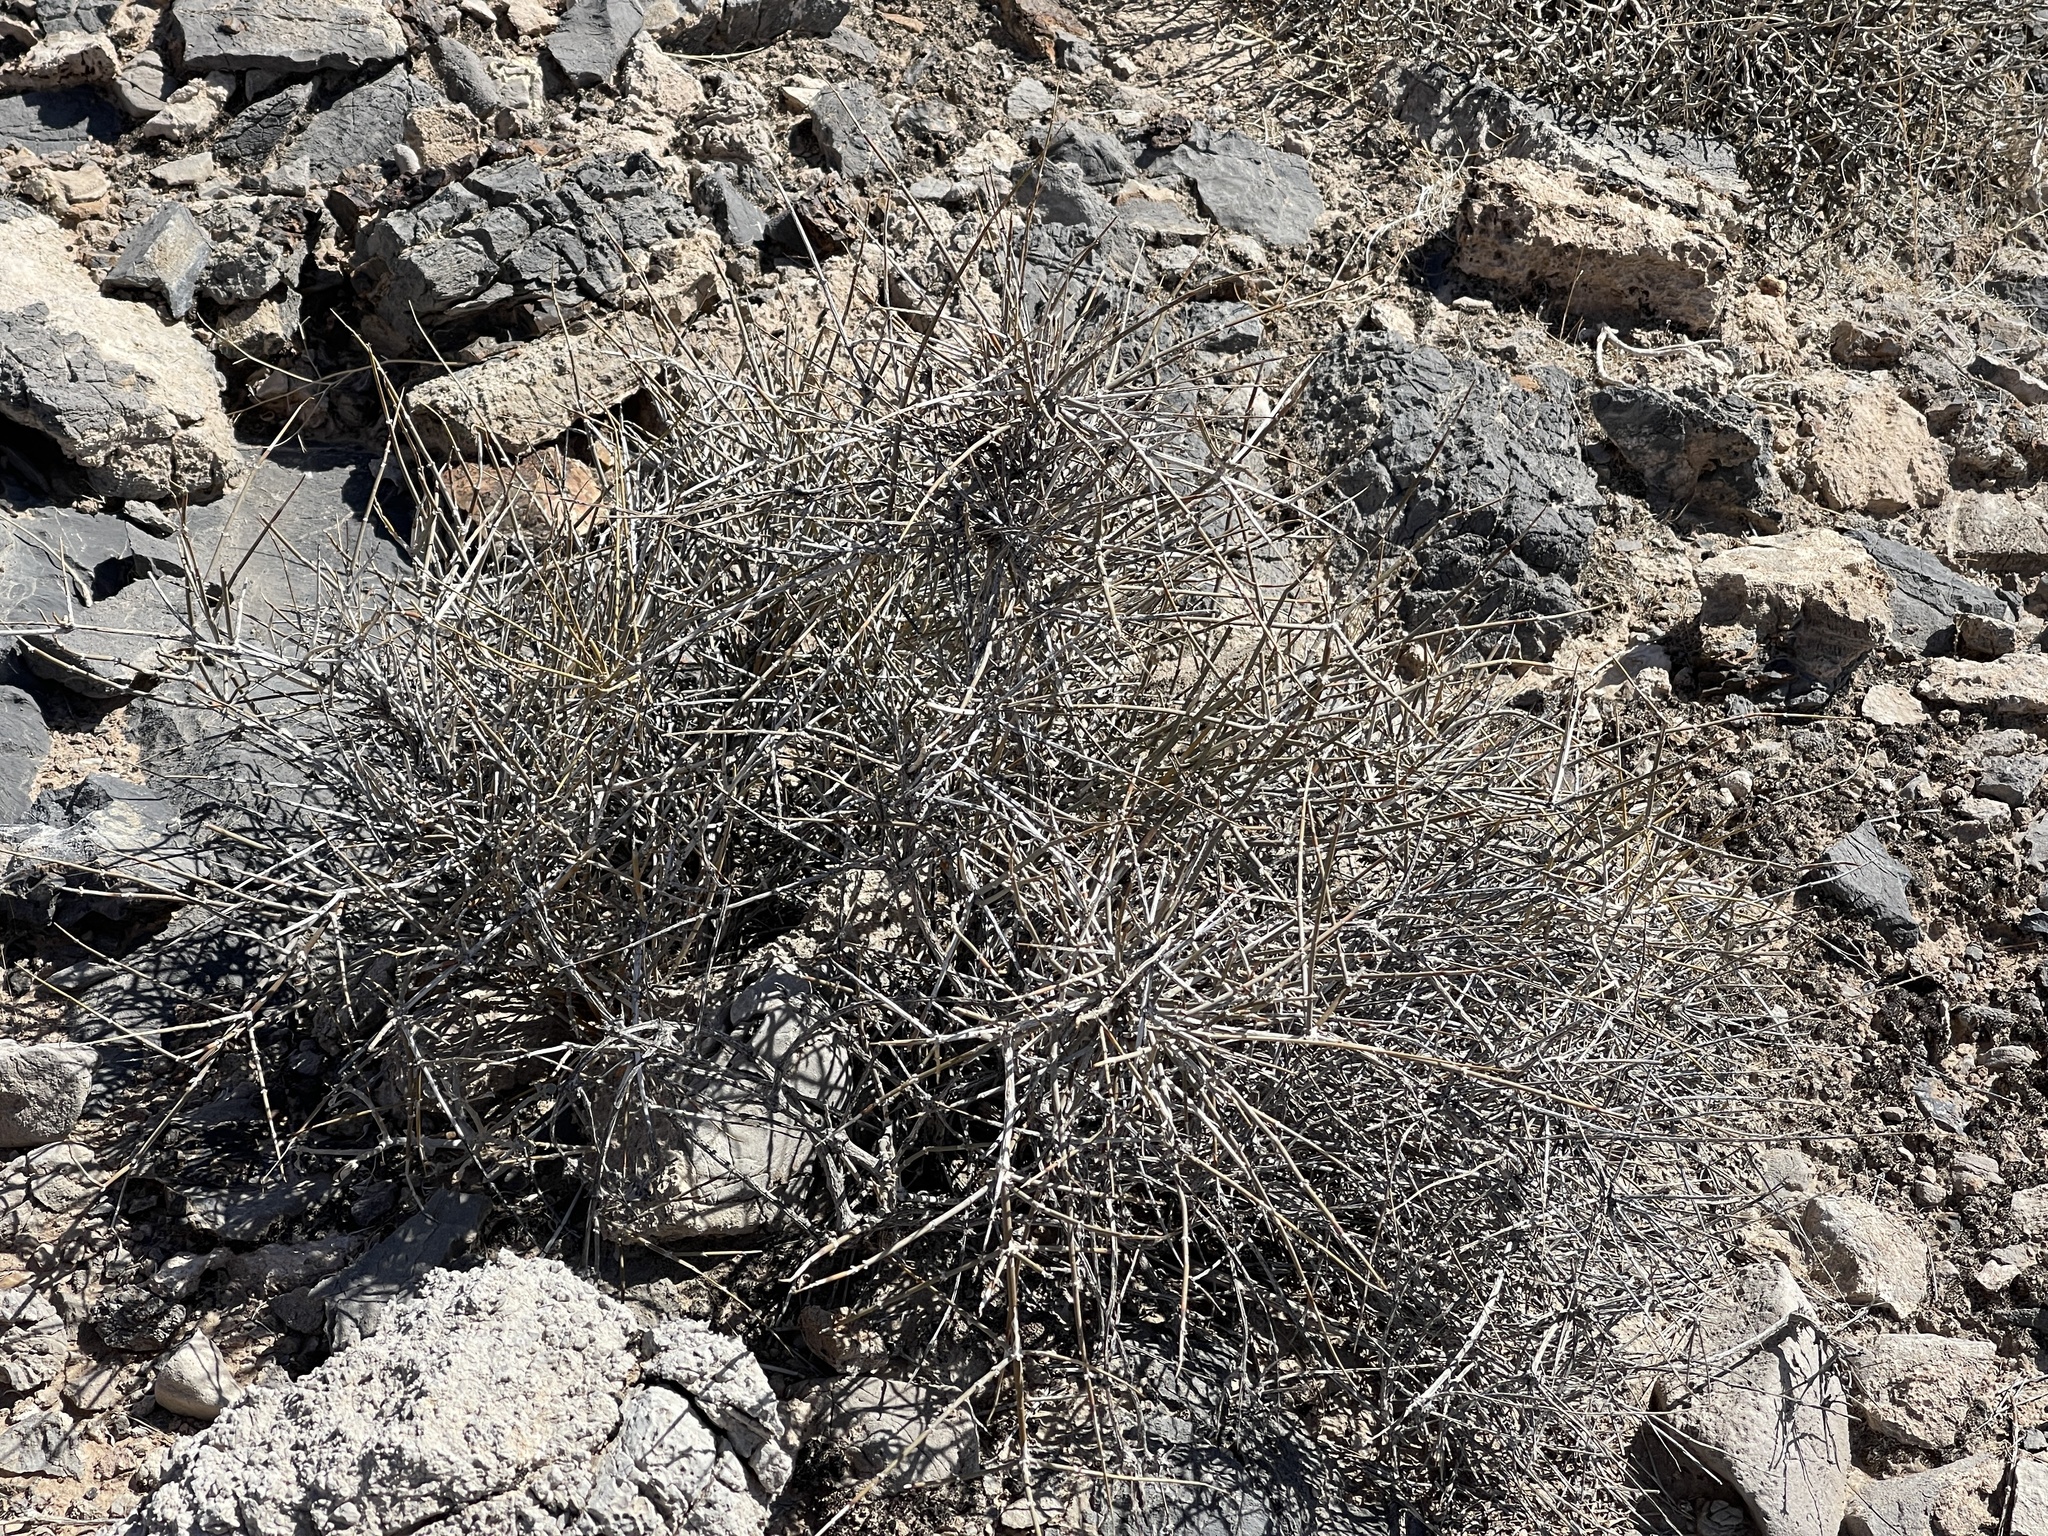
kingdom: Plantae
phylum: Tracheophyta
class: Gnetopsida
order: Ephedrales
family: Ephedraceae
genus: Ephedra
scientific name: Ephedra nevadensis
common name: Gray ephedra
